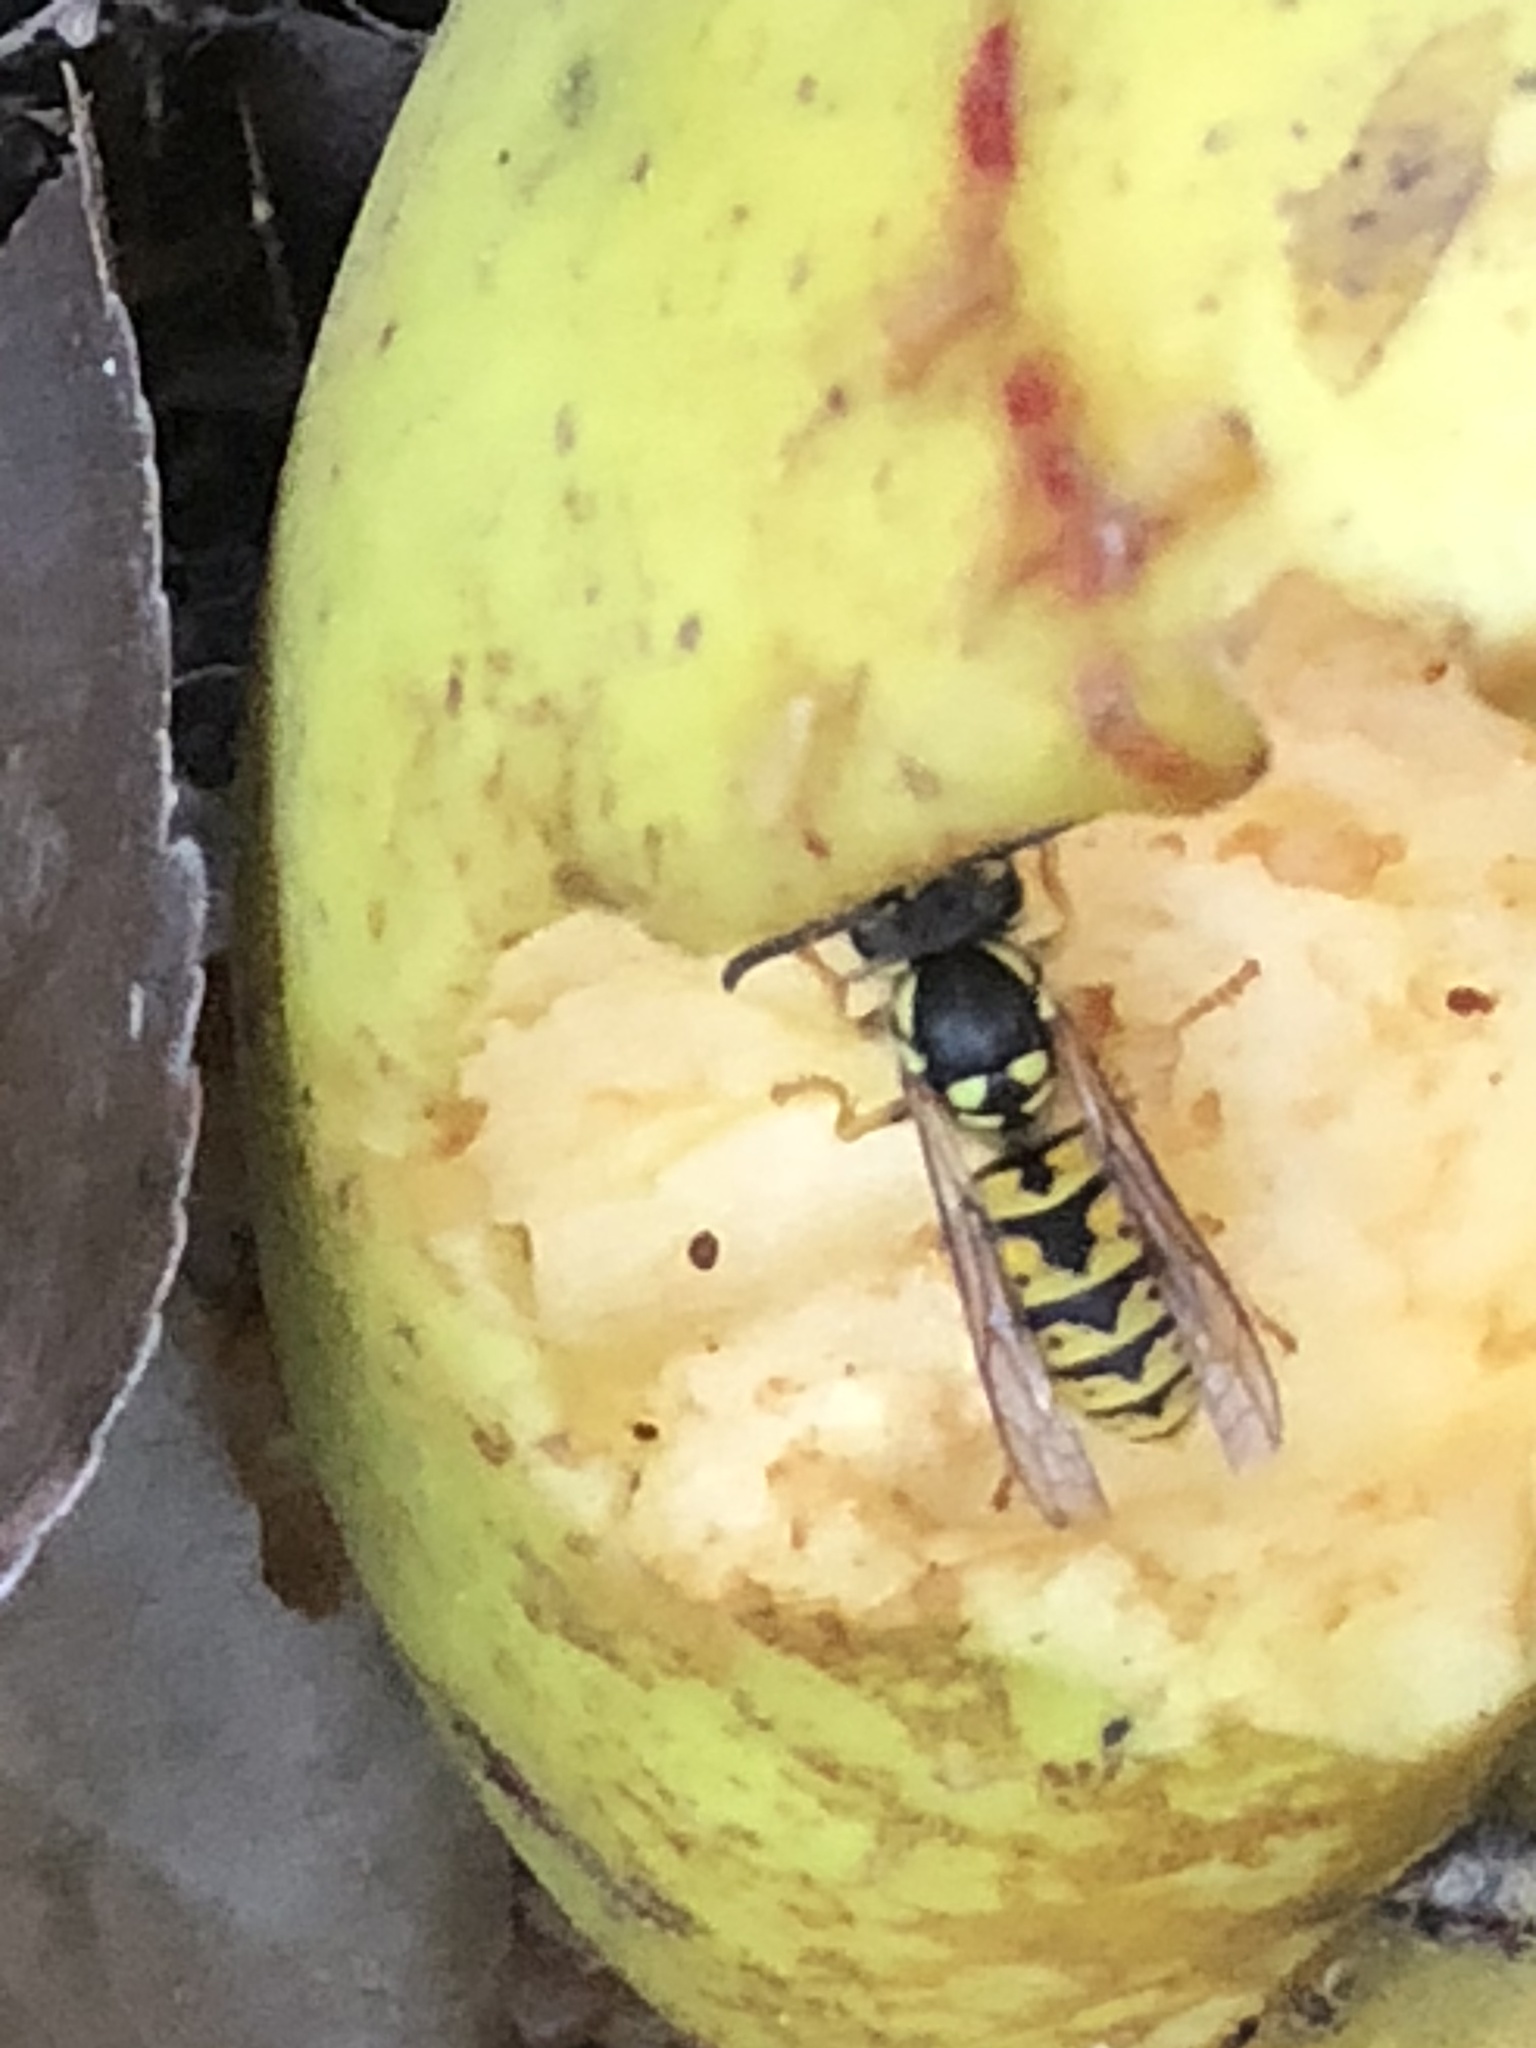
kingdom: Animalia
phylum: Arthropoda
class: Insecta
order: Hymenoptera
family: Vespidae
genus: Vespula
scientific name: Vespula germanica
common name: German wasp
